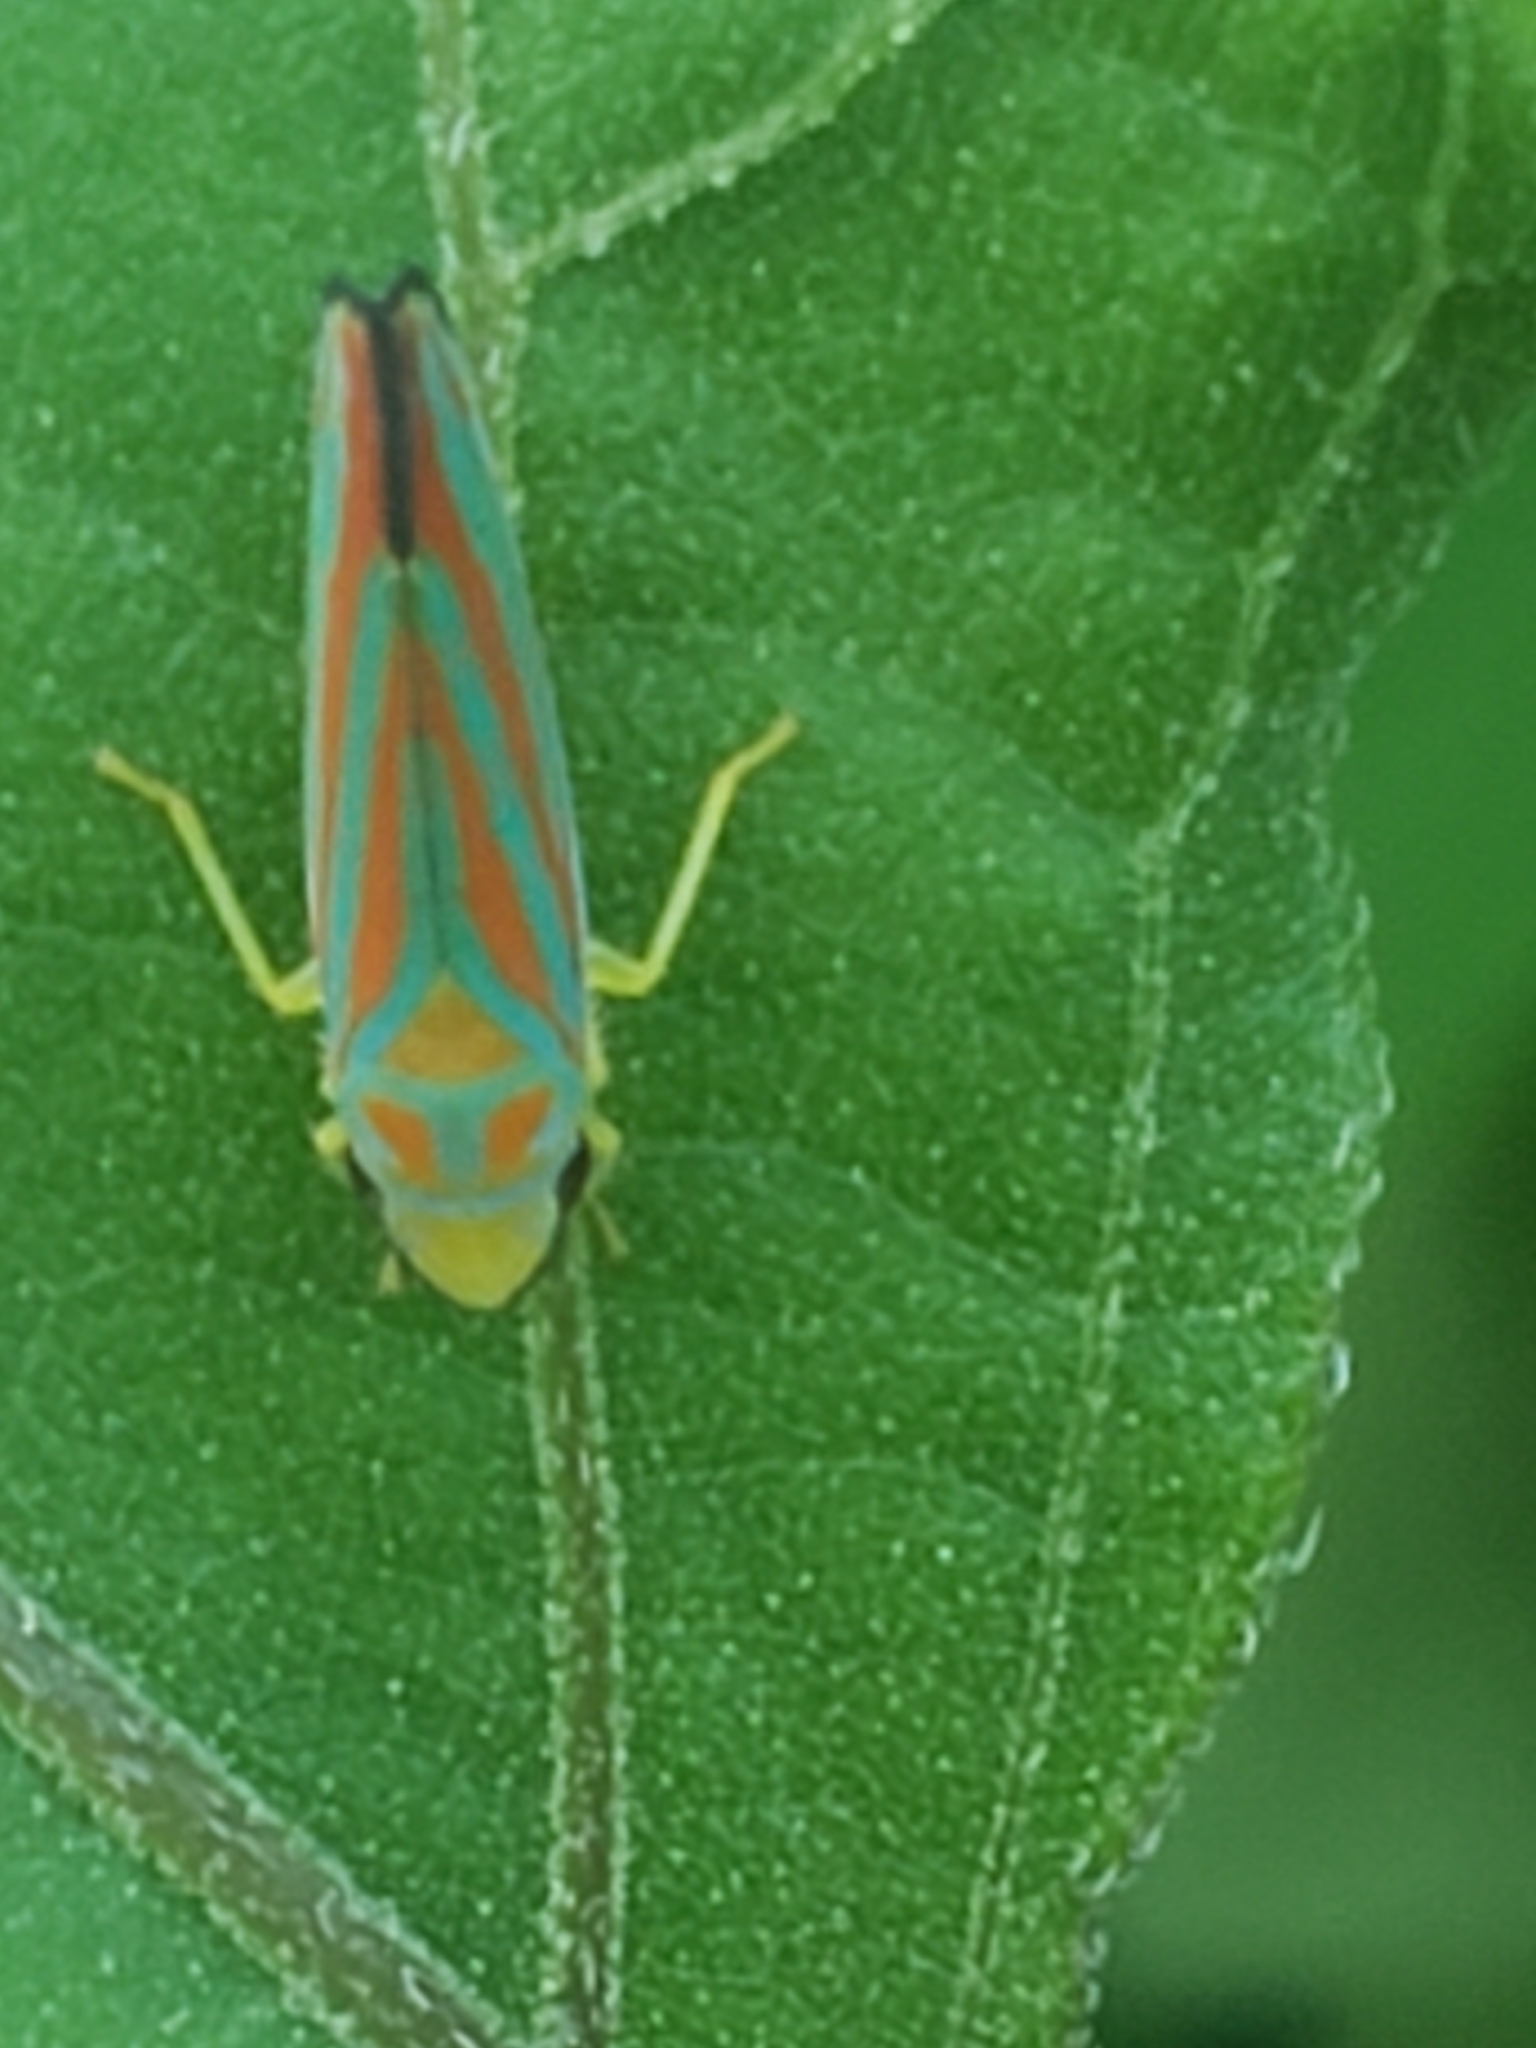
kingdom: Animalia
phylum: Arthropoda
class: Insecta
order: Hemiptera
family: Cicadellidae
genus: Graphocephala
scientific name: Graphocephala coccinea
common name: Candy-striped leafhopper
